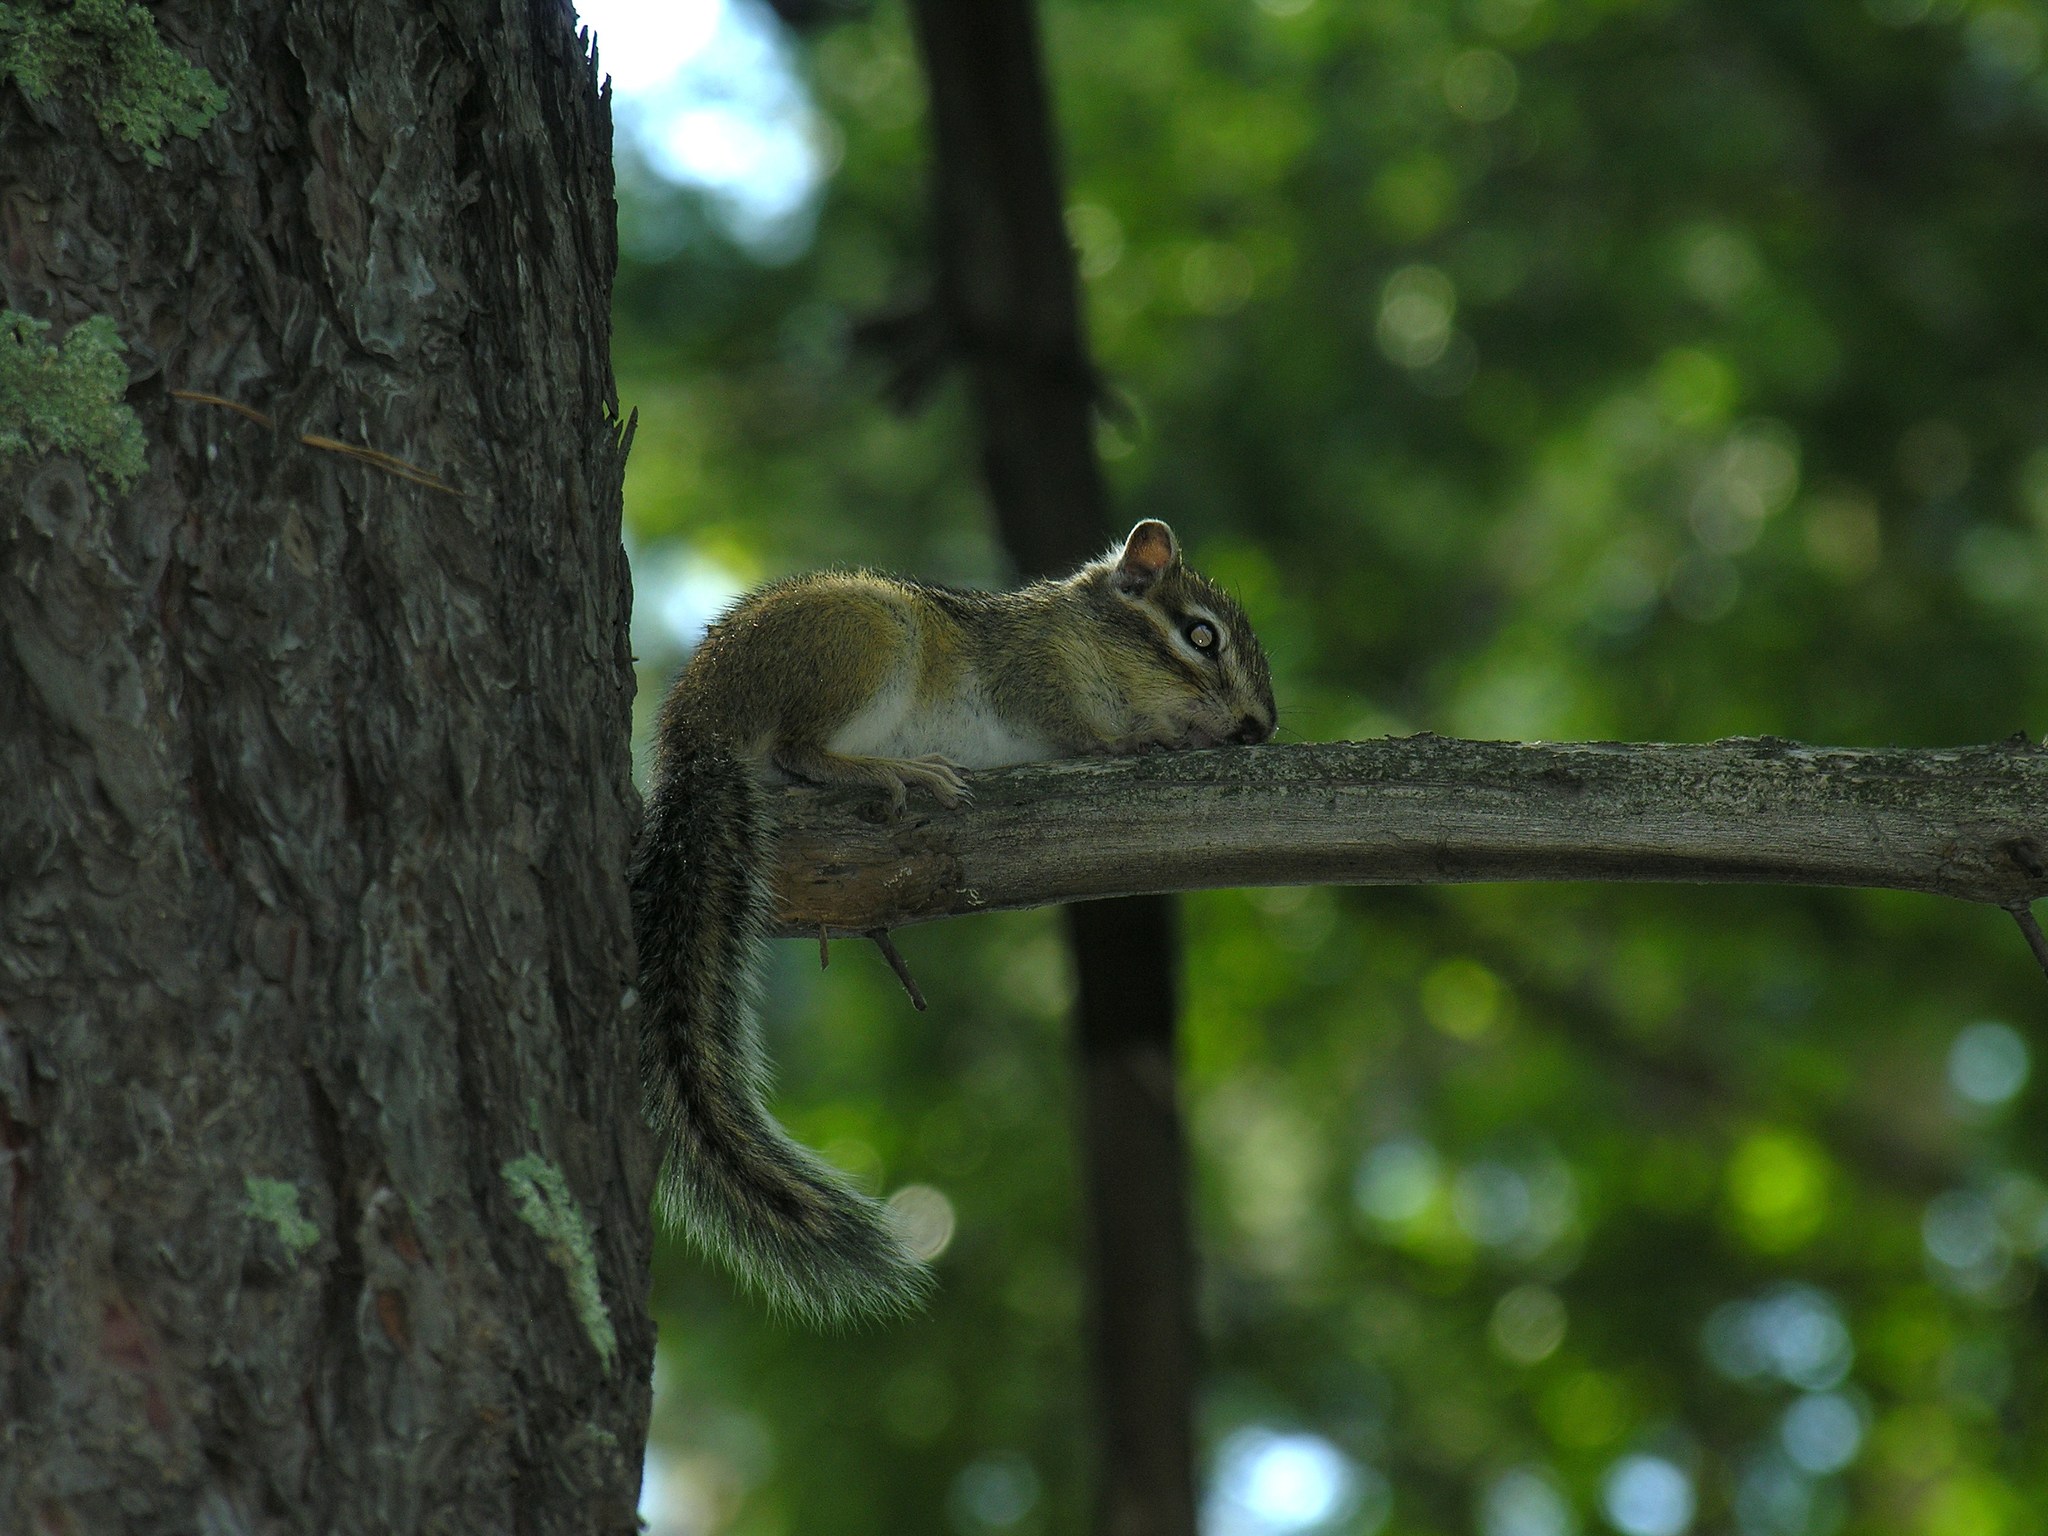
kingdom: Animalia
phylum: Chordata
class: Mammalia
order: Rodentia
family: Sciuridae
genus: Tamias
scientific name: Tamias sibiricus
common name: Siberian chipmunk
